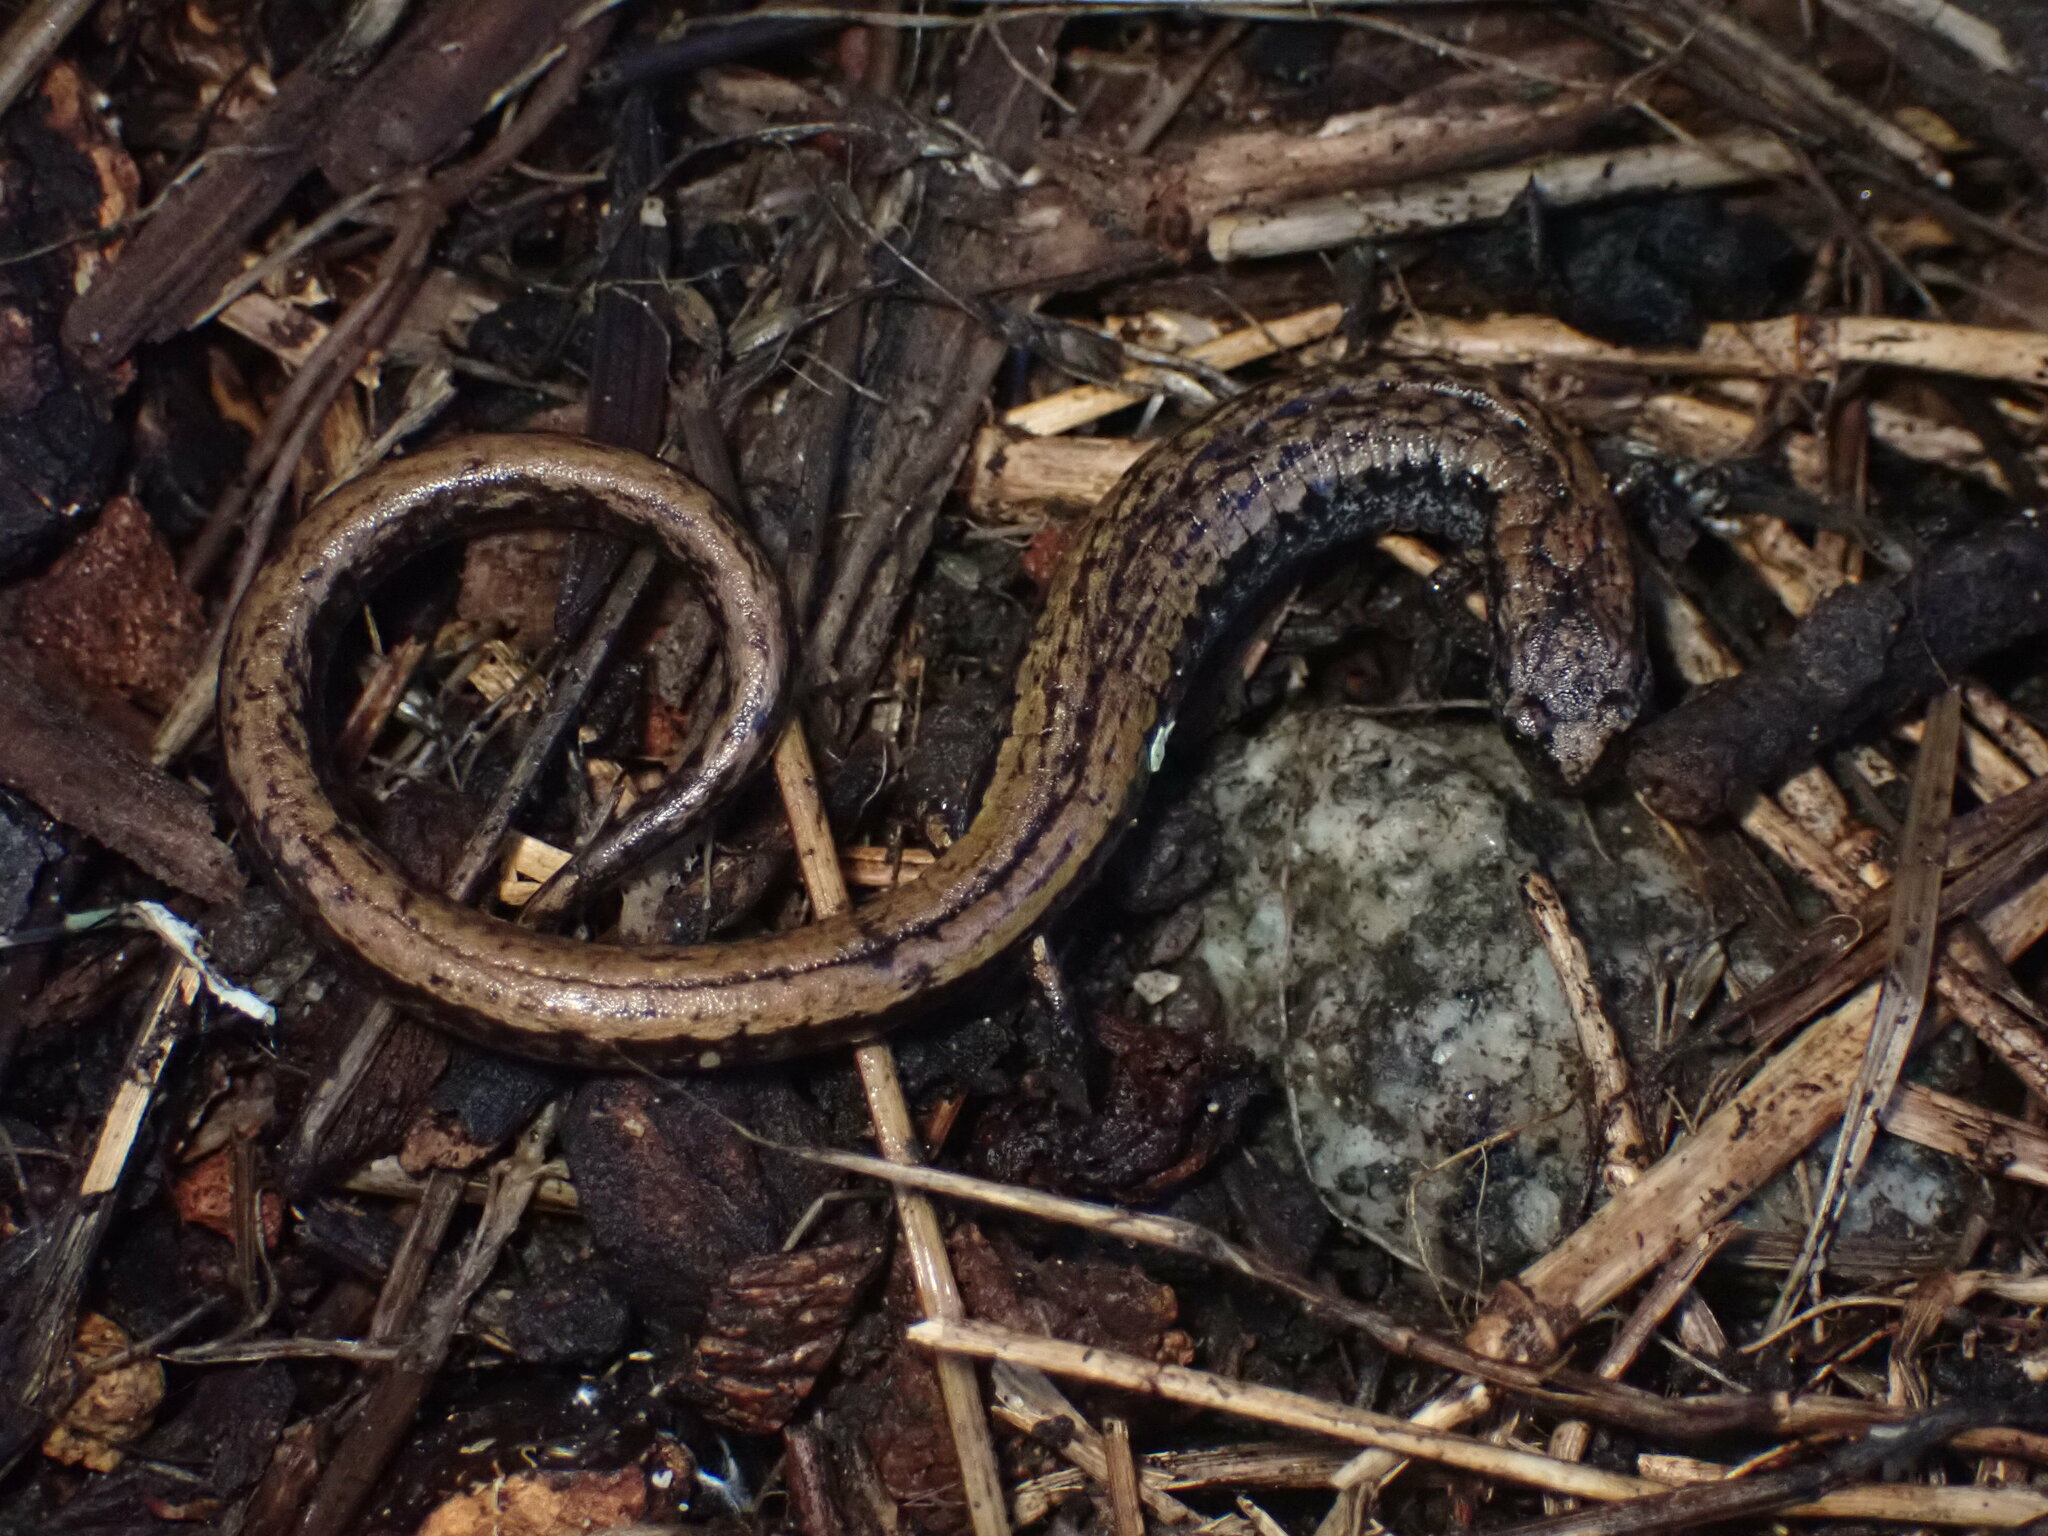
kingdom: Animalia
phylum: Chordata
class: Amphibia
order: Caudata
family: Plethodontidae
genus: Batrachoseps
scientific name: Batrachoseps attenuatus
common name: California slender salamander
